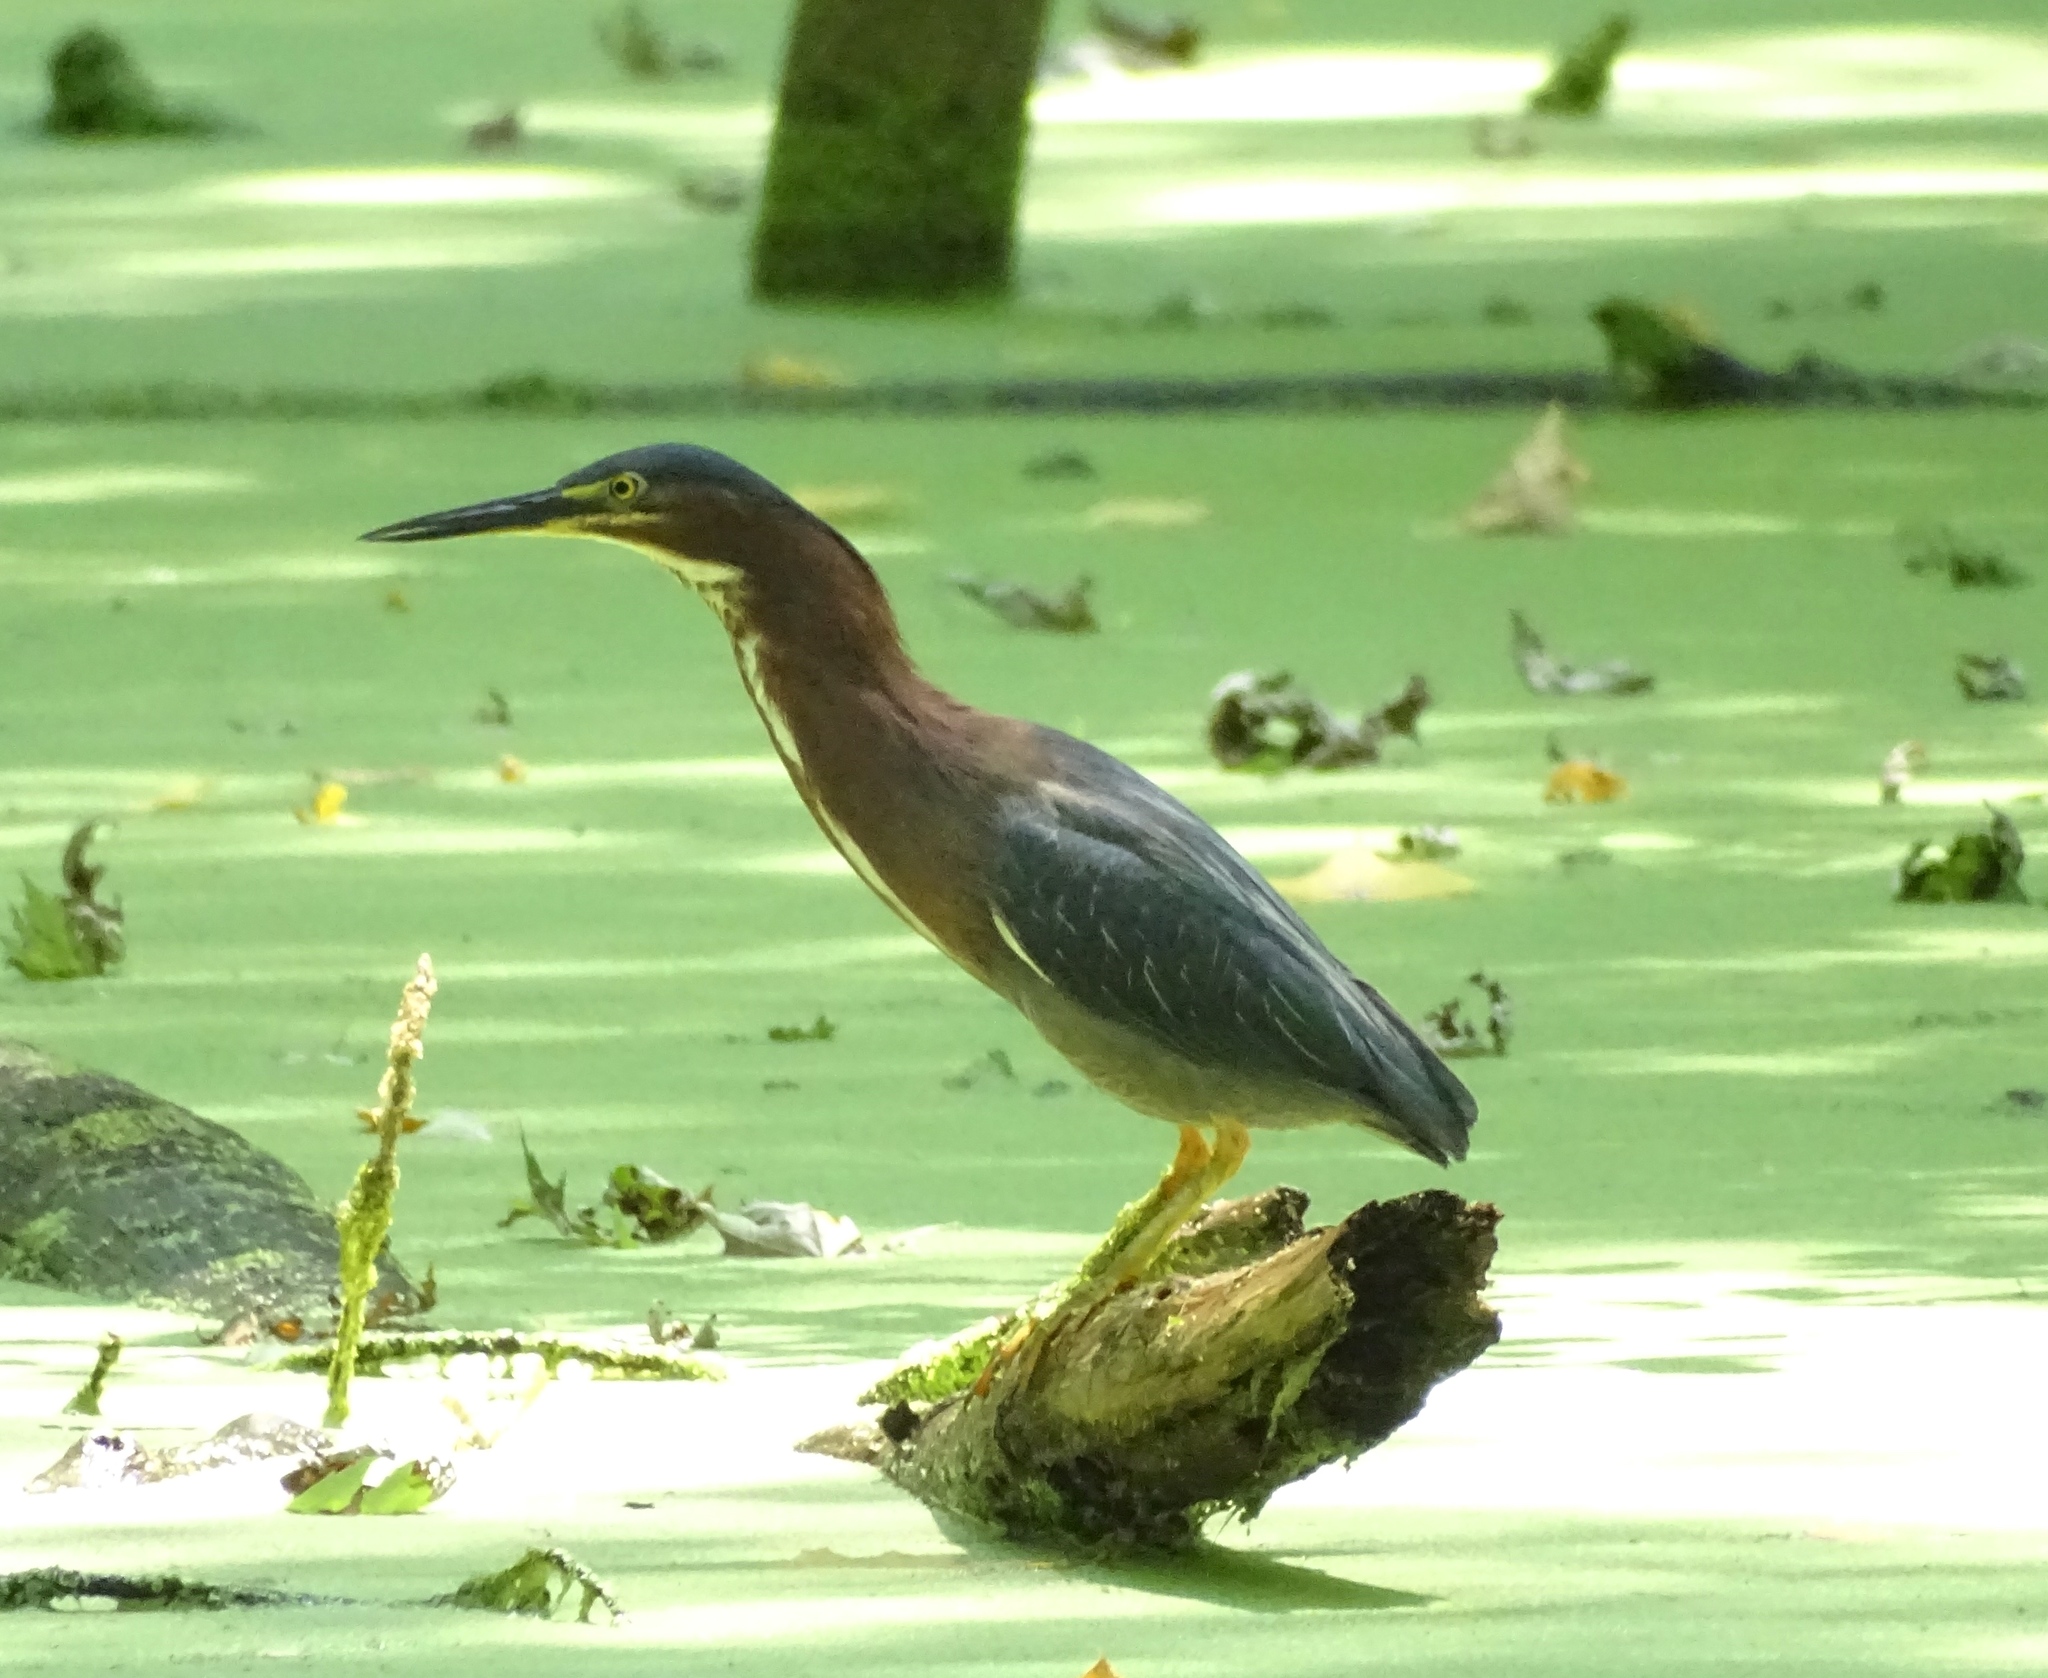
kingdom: Animalia
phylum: Chordata
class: Aves
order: Pelecaniformes
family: Ardeidae
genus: Butorides
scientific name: Butorides virescens
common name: Green heron
